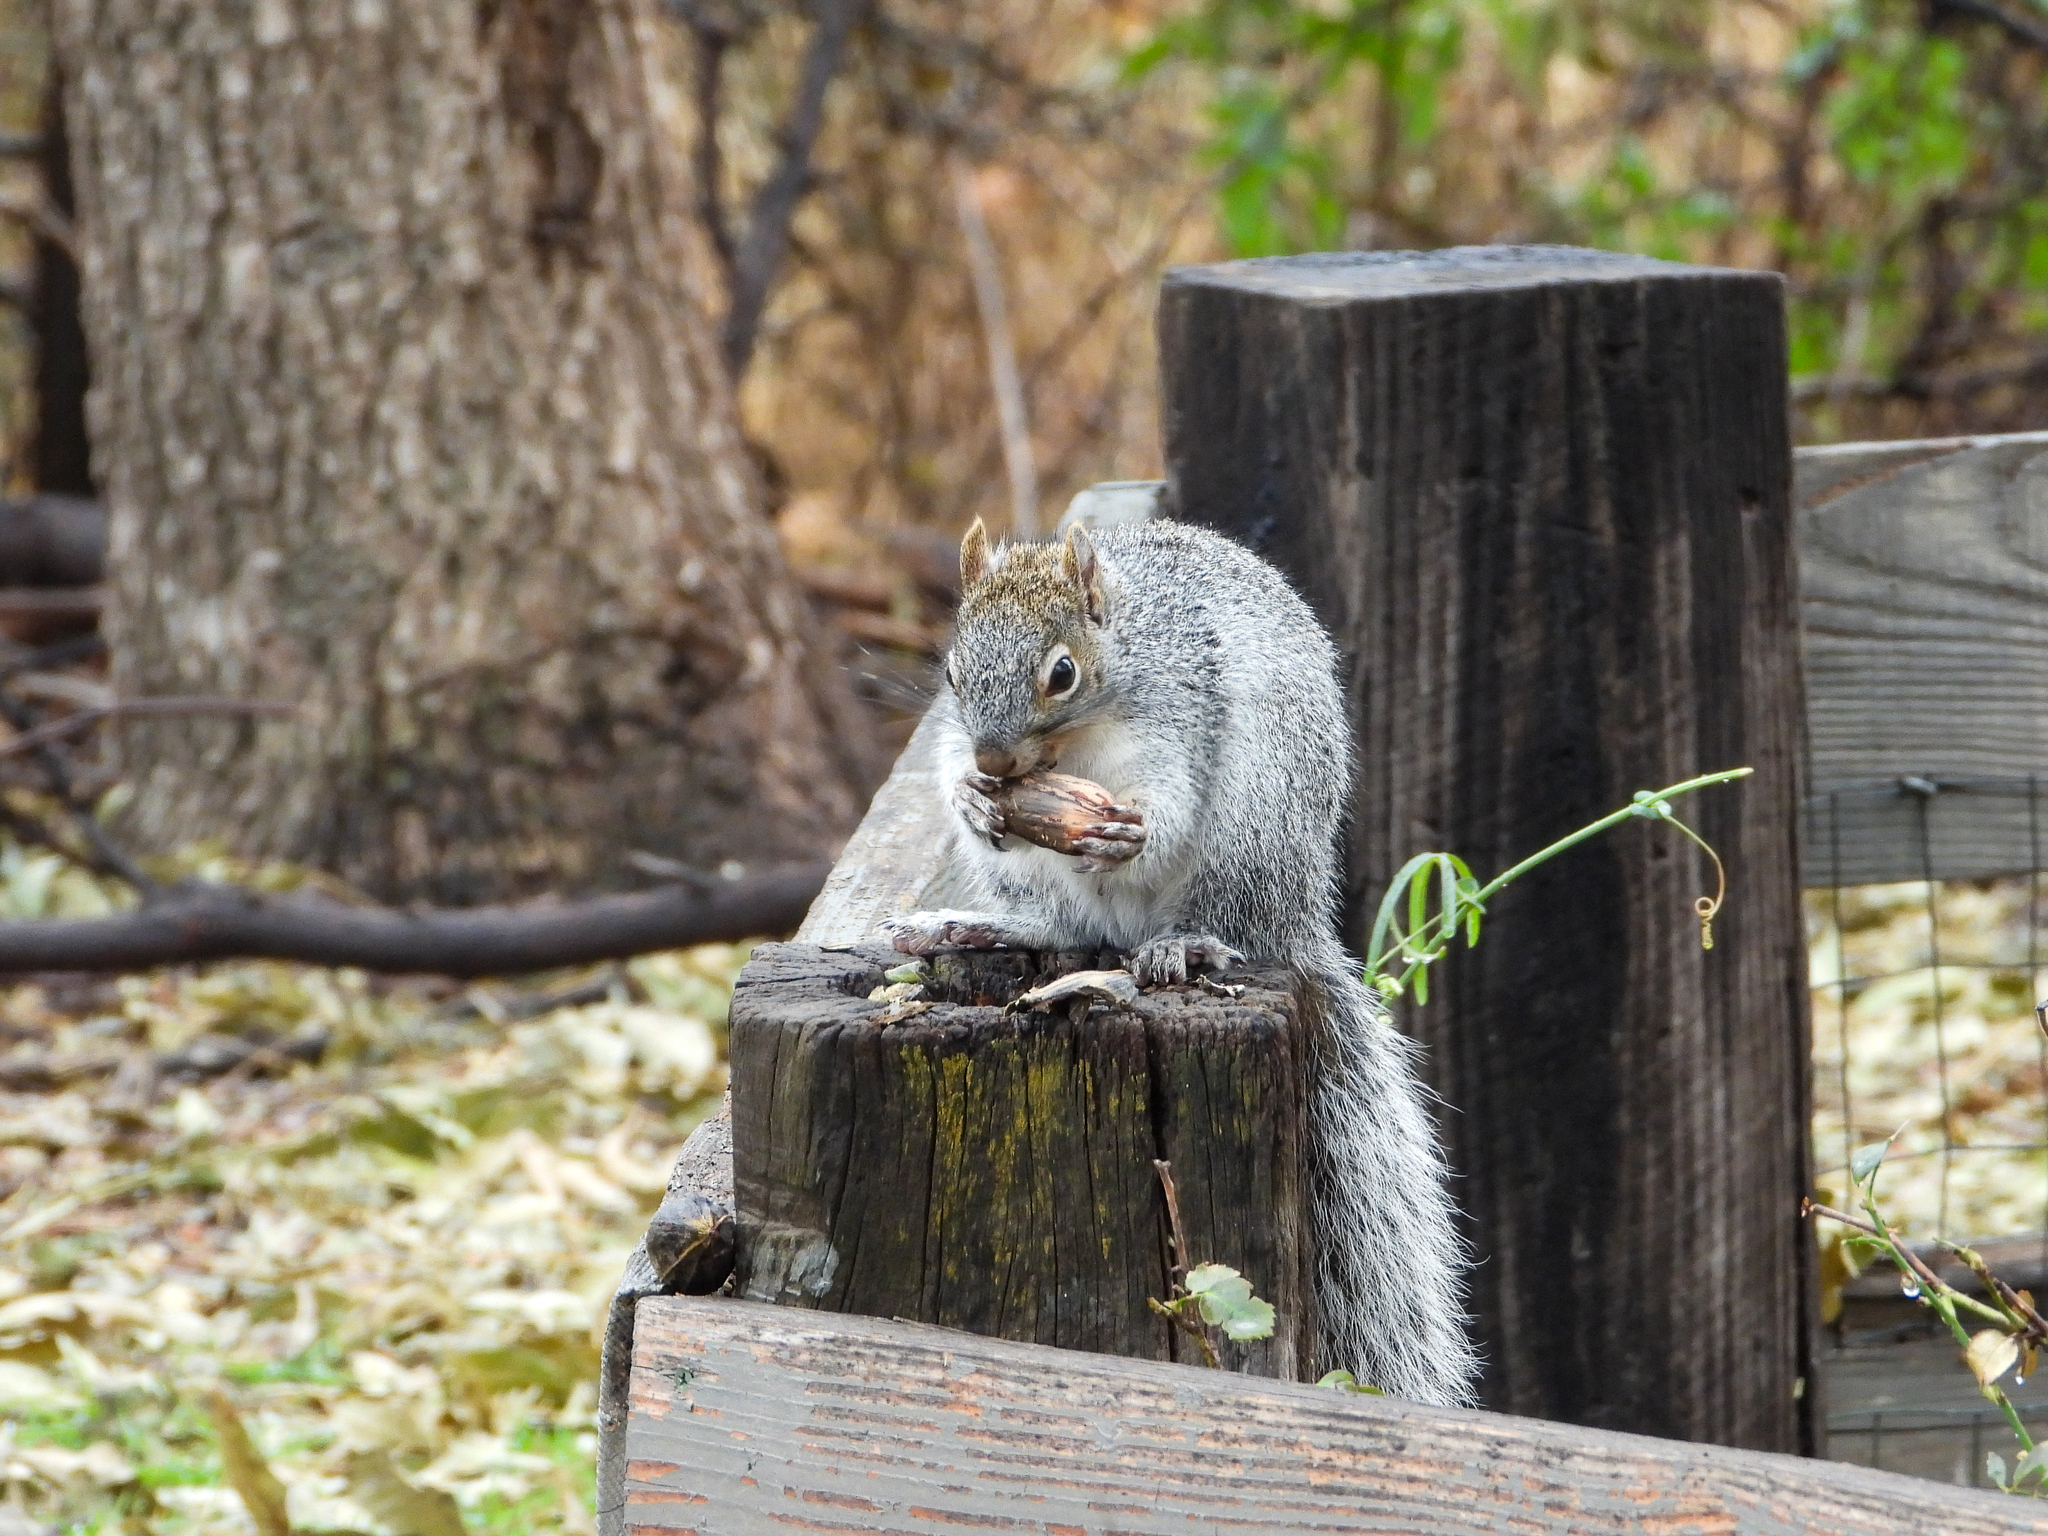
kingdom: Animalia
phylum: Chordata
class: Mammalia
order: Rodentia
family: Sciuridae
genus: Sciurus
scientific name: Sciurus arizonensis
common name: Arizona gray squirrel
